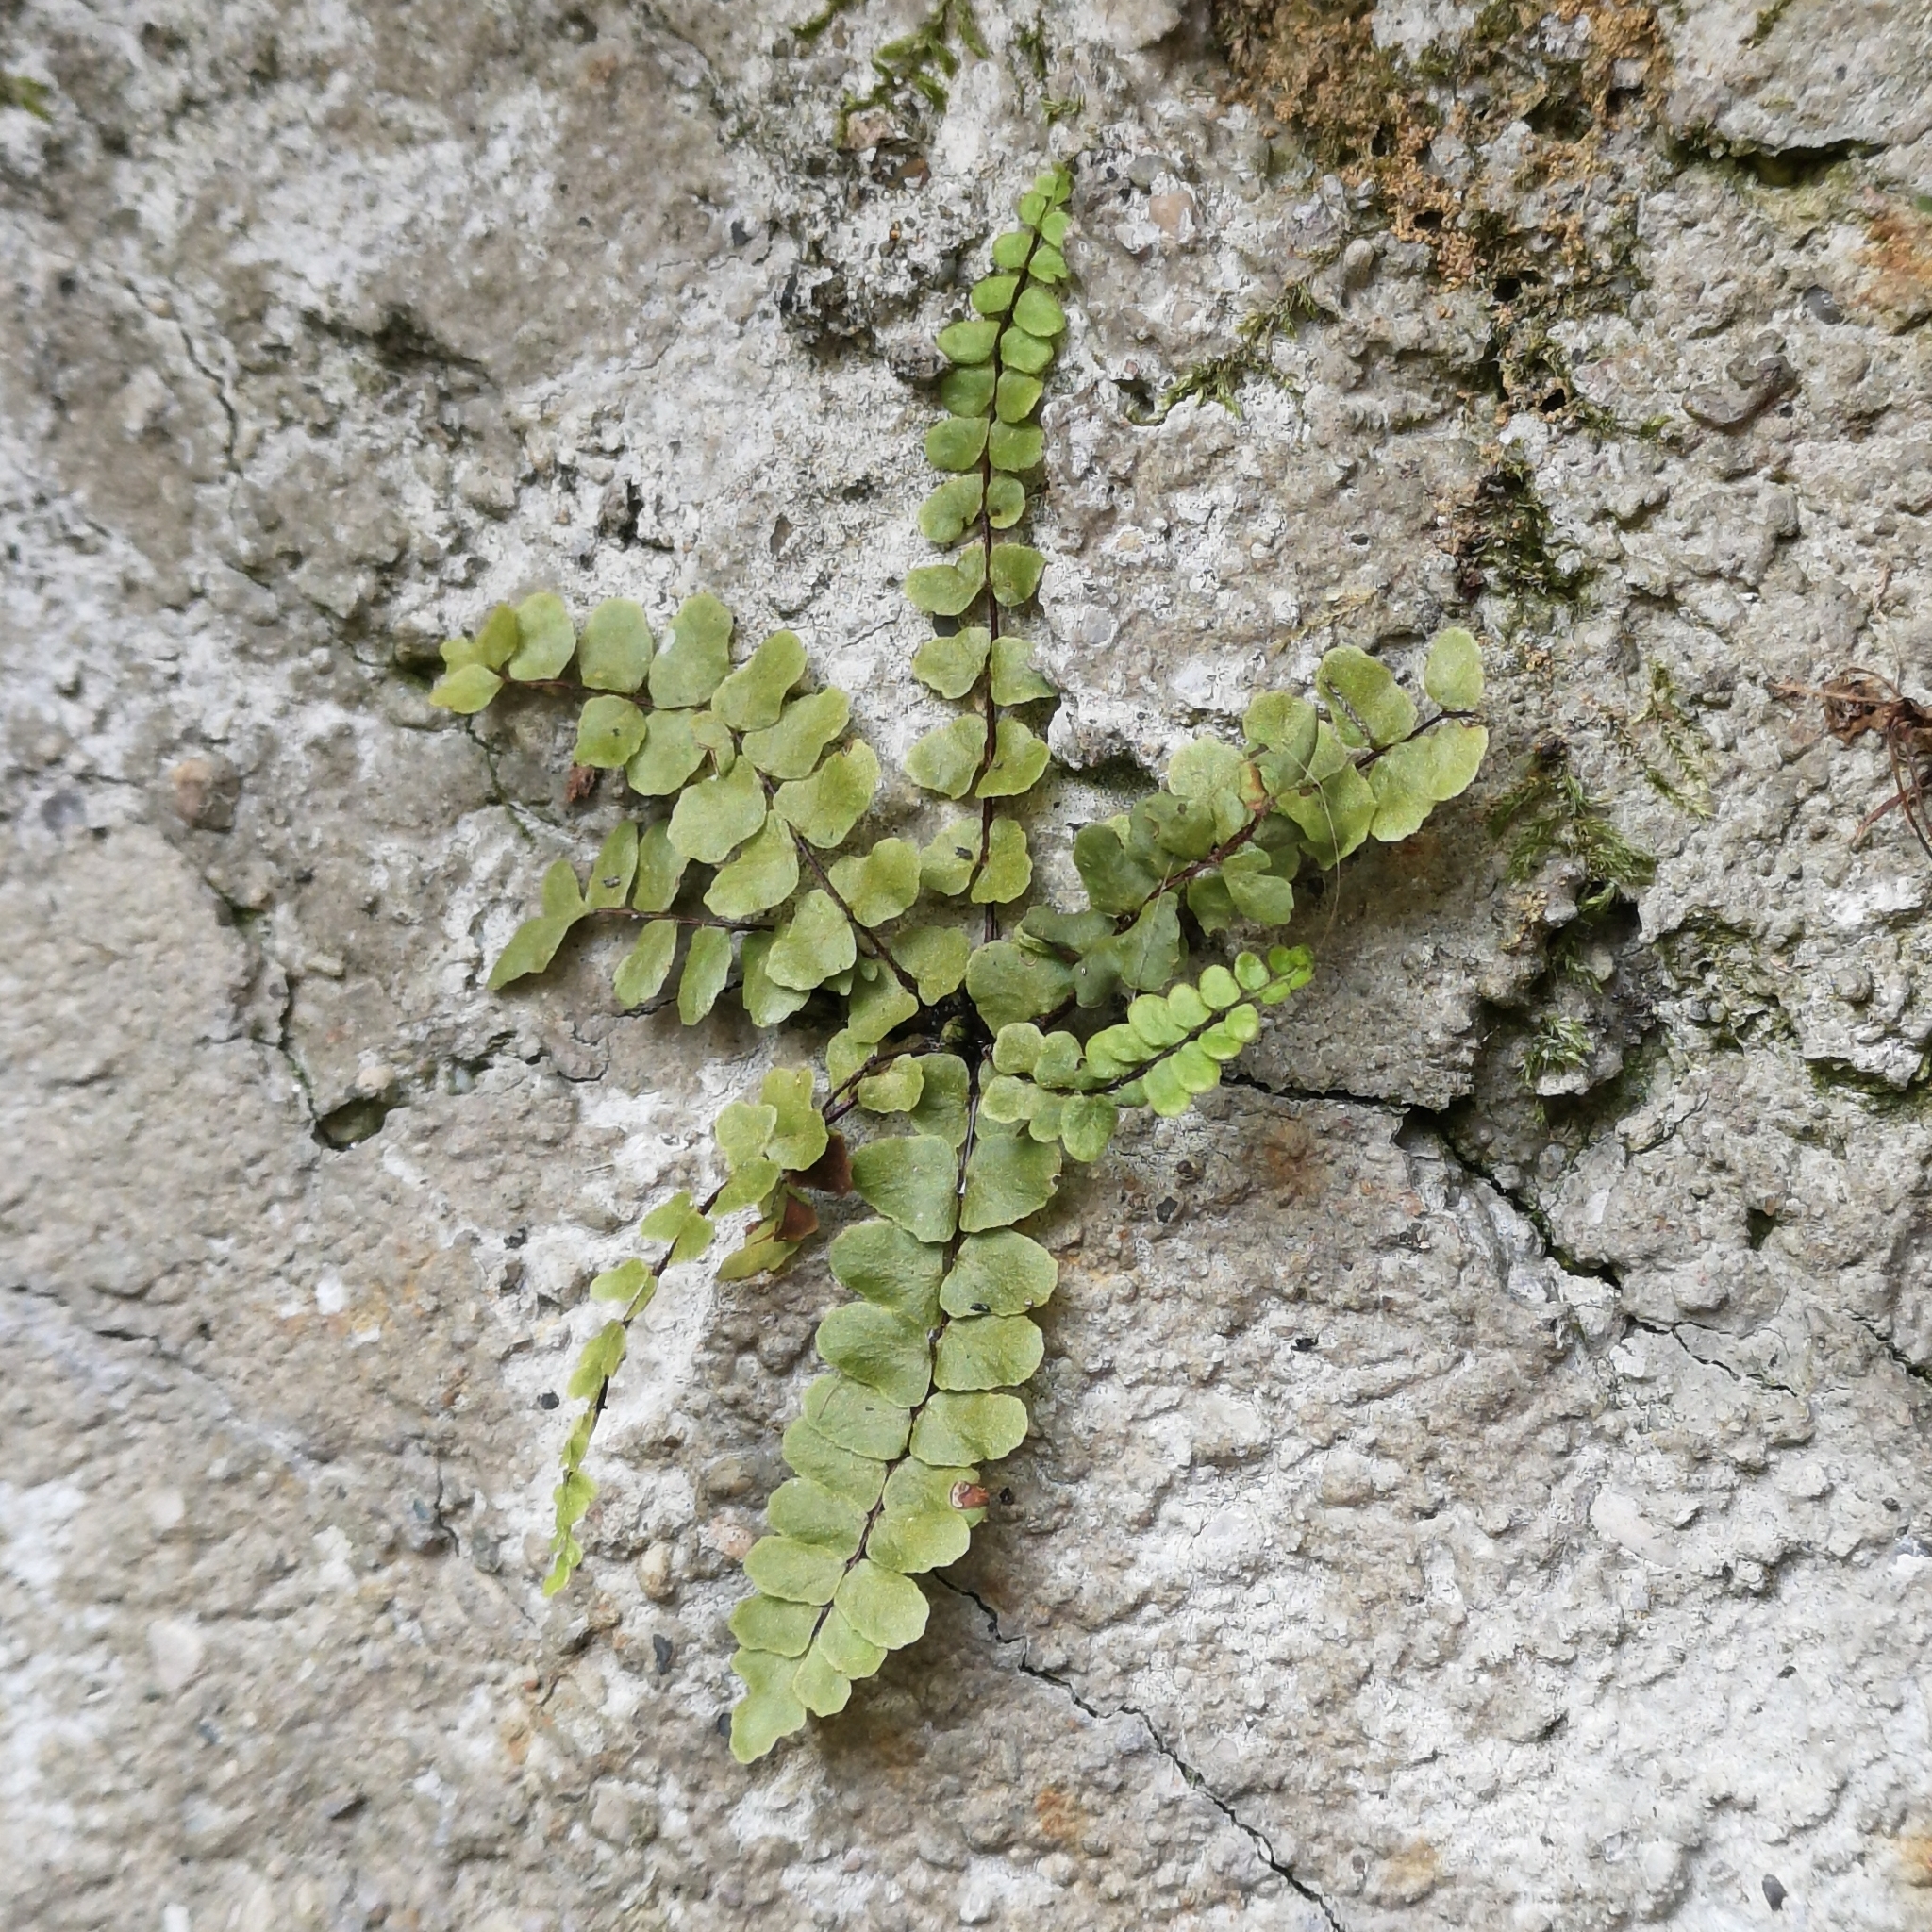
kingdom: Plantae
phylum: Tracheophyta
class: Polypodiopsida
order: Polypodiales
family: Aspleniaceae
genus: Asplenium
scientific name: Asplenium trichomanes
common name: Maidenhair spleenwort
